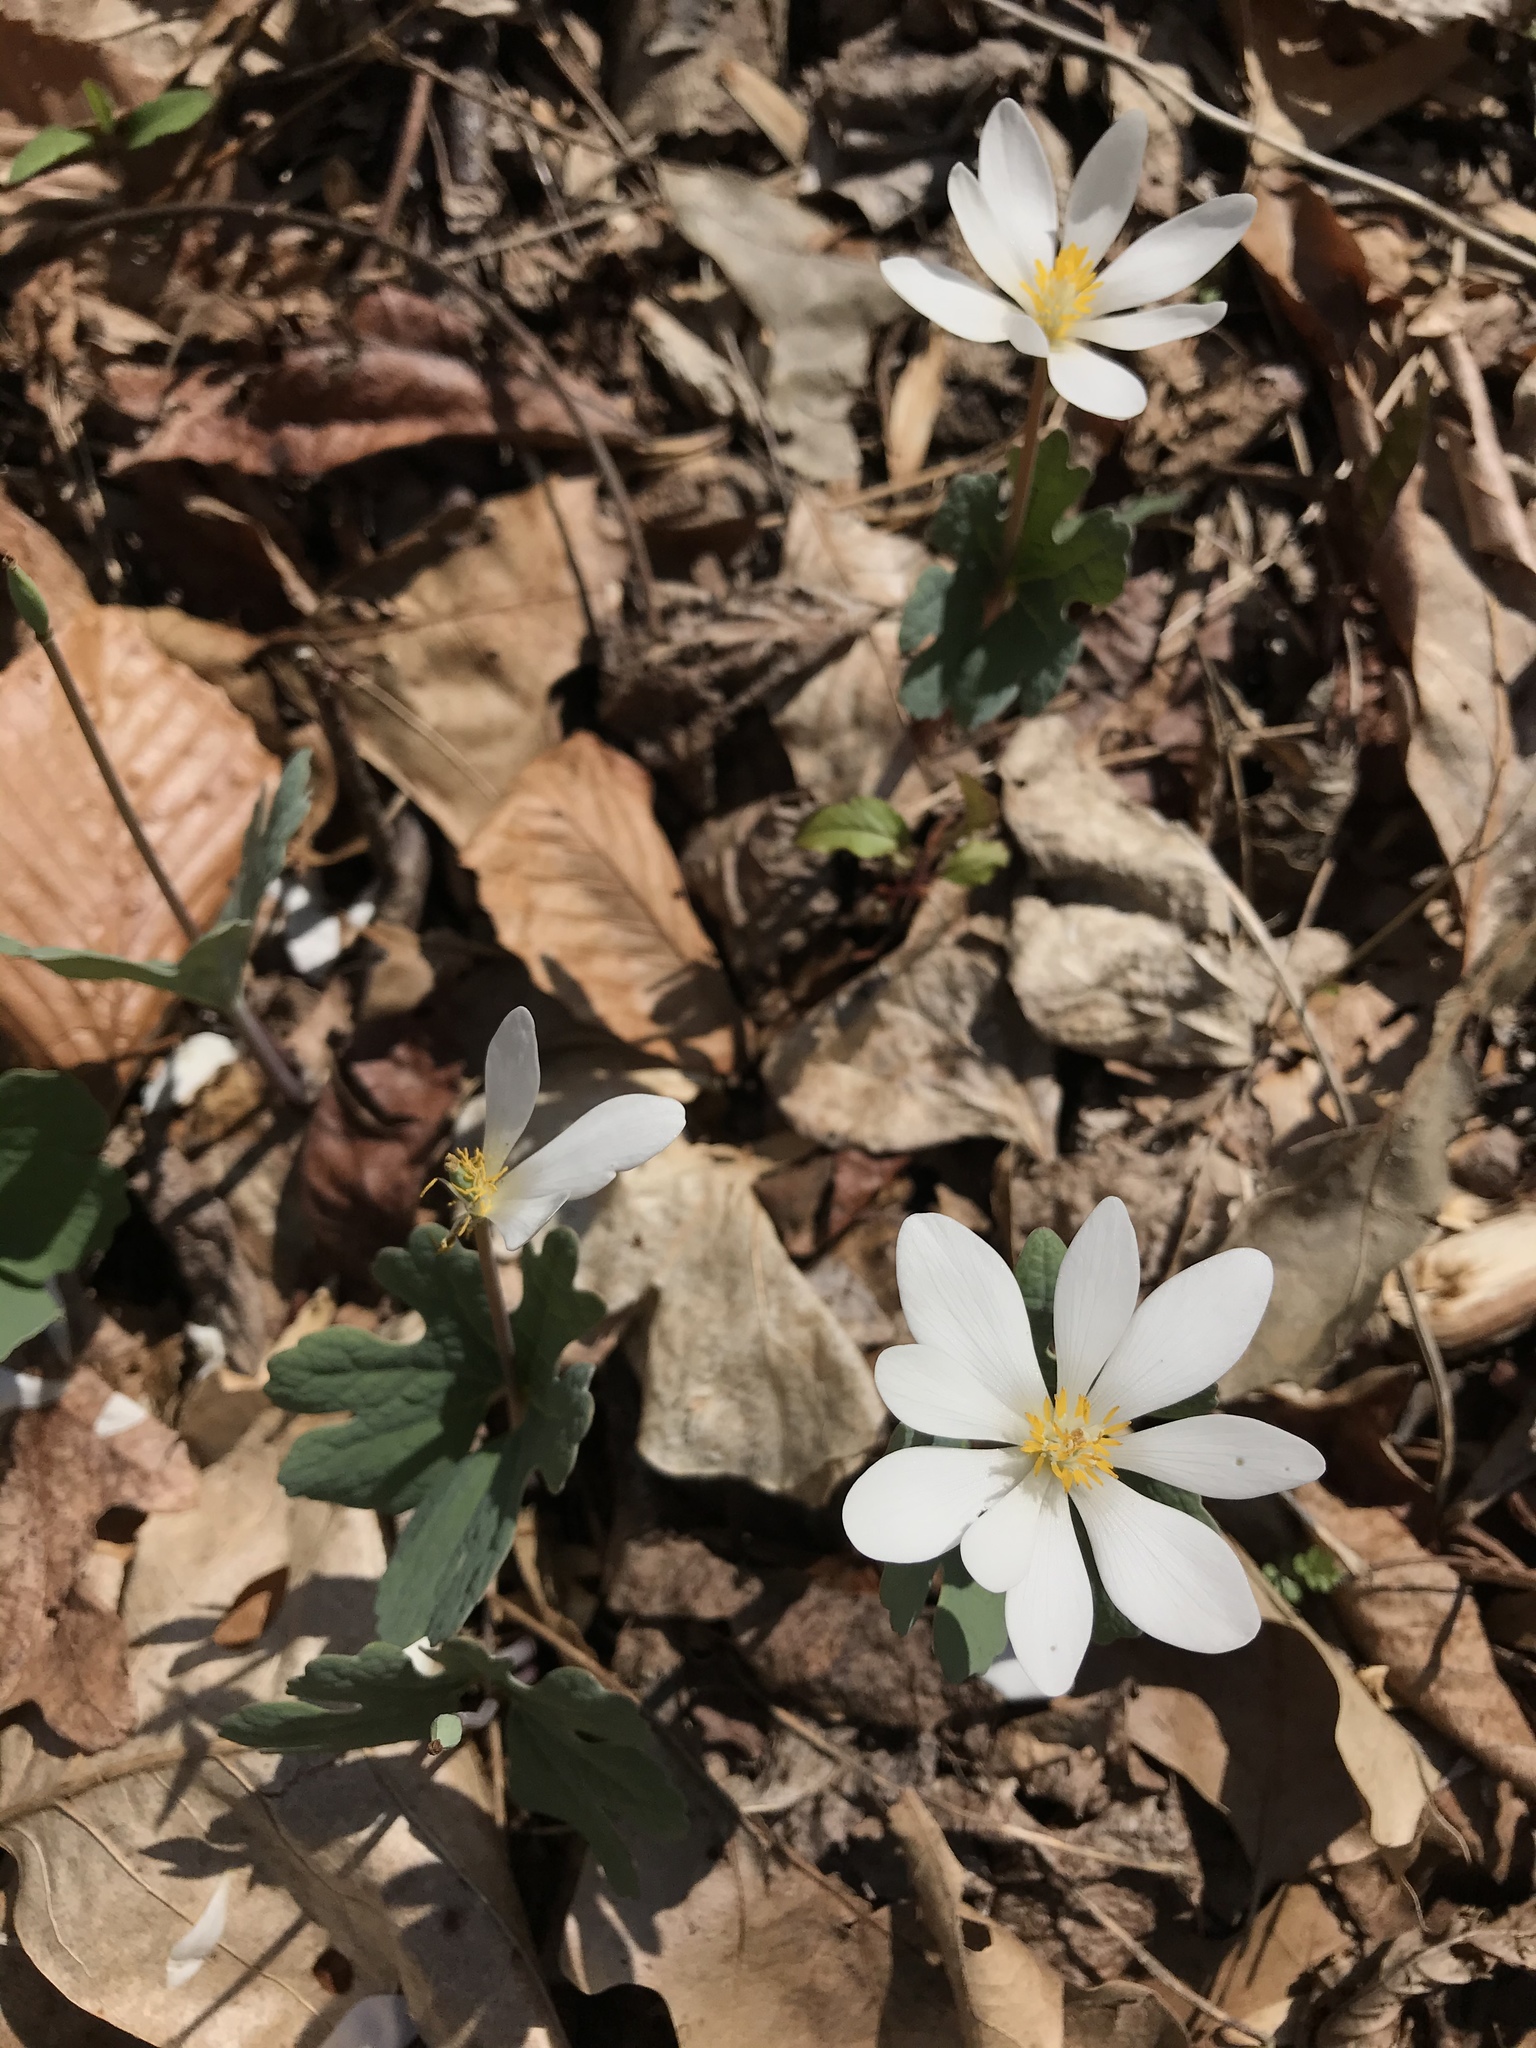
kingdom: Plantae
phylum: Tracheophyta
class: Magnoliopsida
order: Ranunculales
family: Papaveraceae
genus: Sanguinaria
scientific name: Sanguinaria canadensis
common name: Bloodroot
